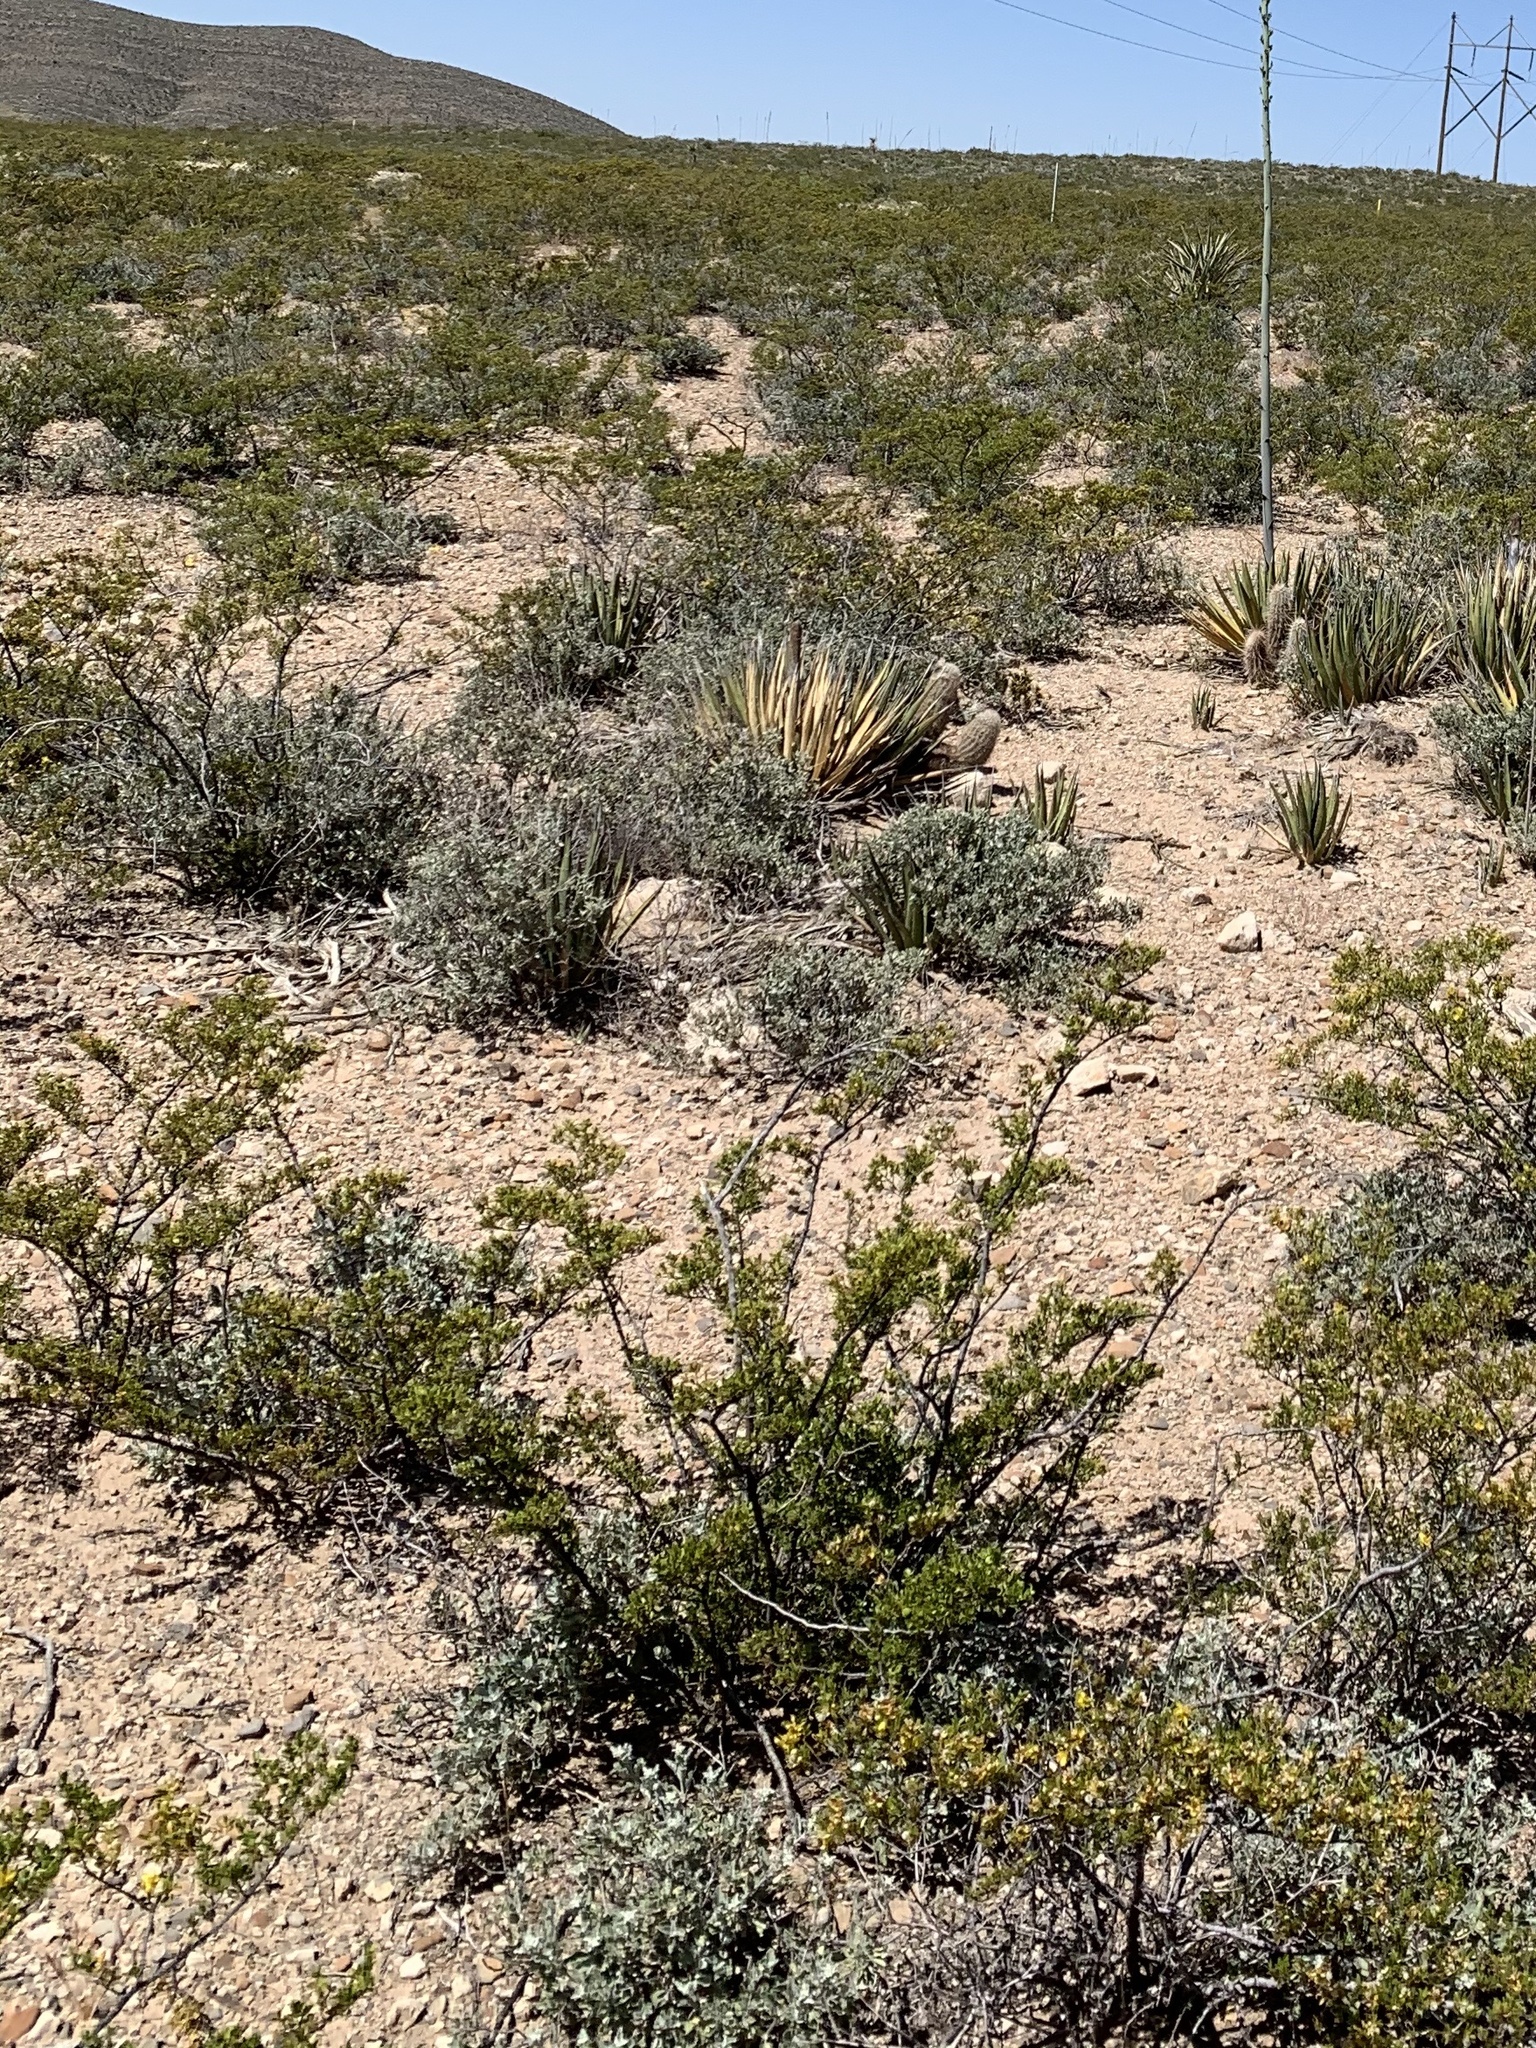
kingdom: Plantae
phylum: Tracheophyta
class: Magnoliopsida
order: Zygophyllales
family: Zygophyllaceae
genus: Larrea
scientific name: Larrea tridentata
